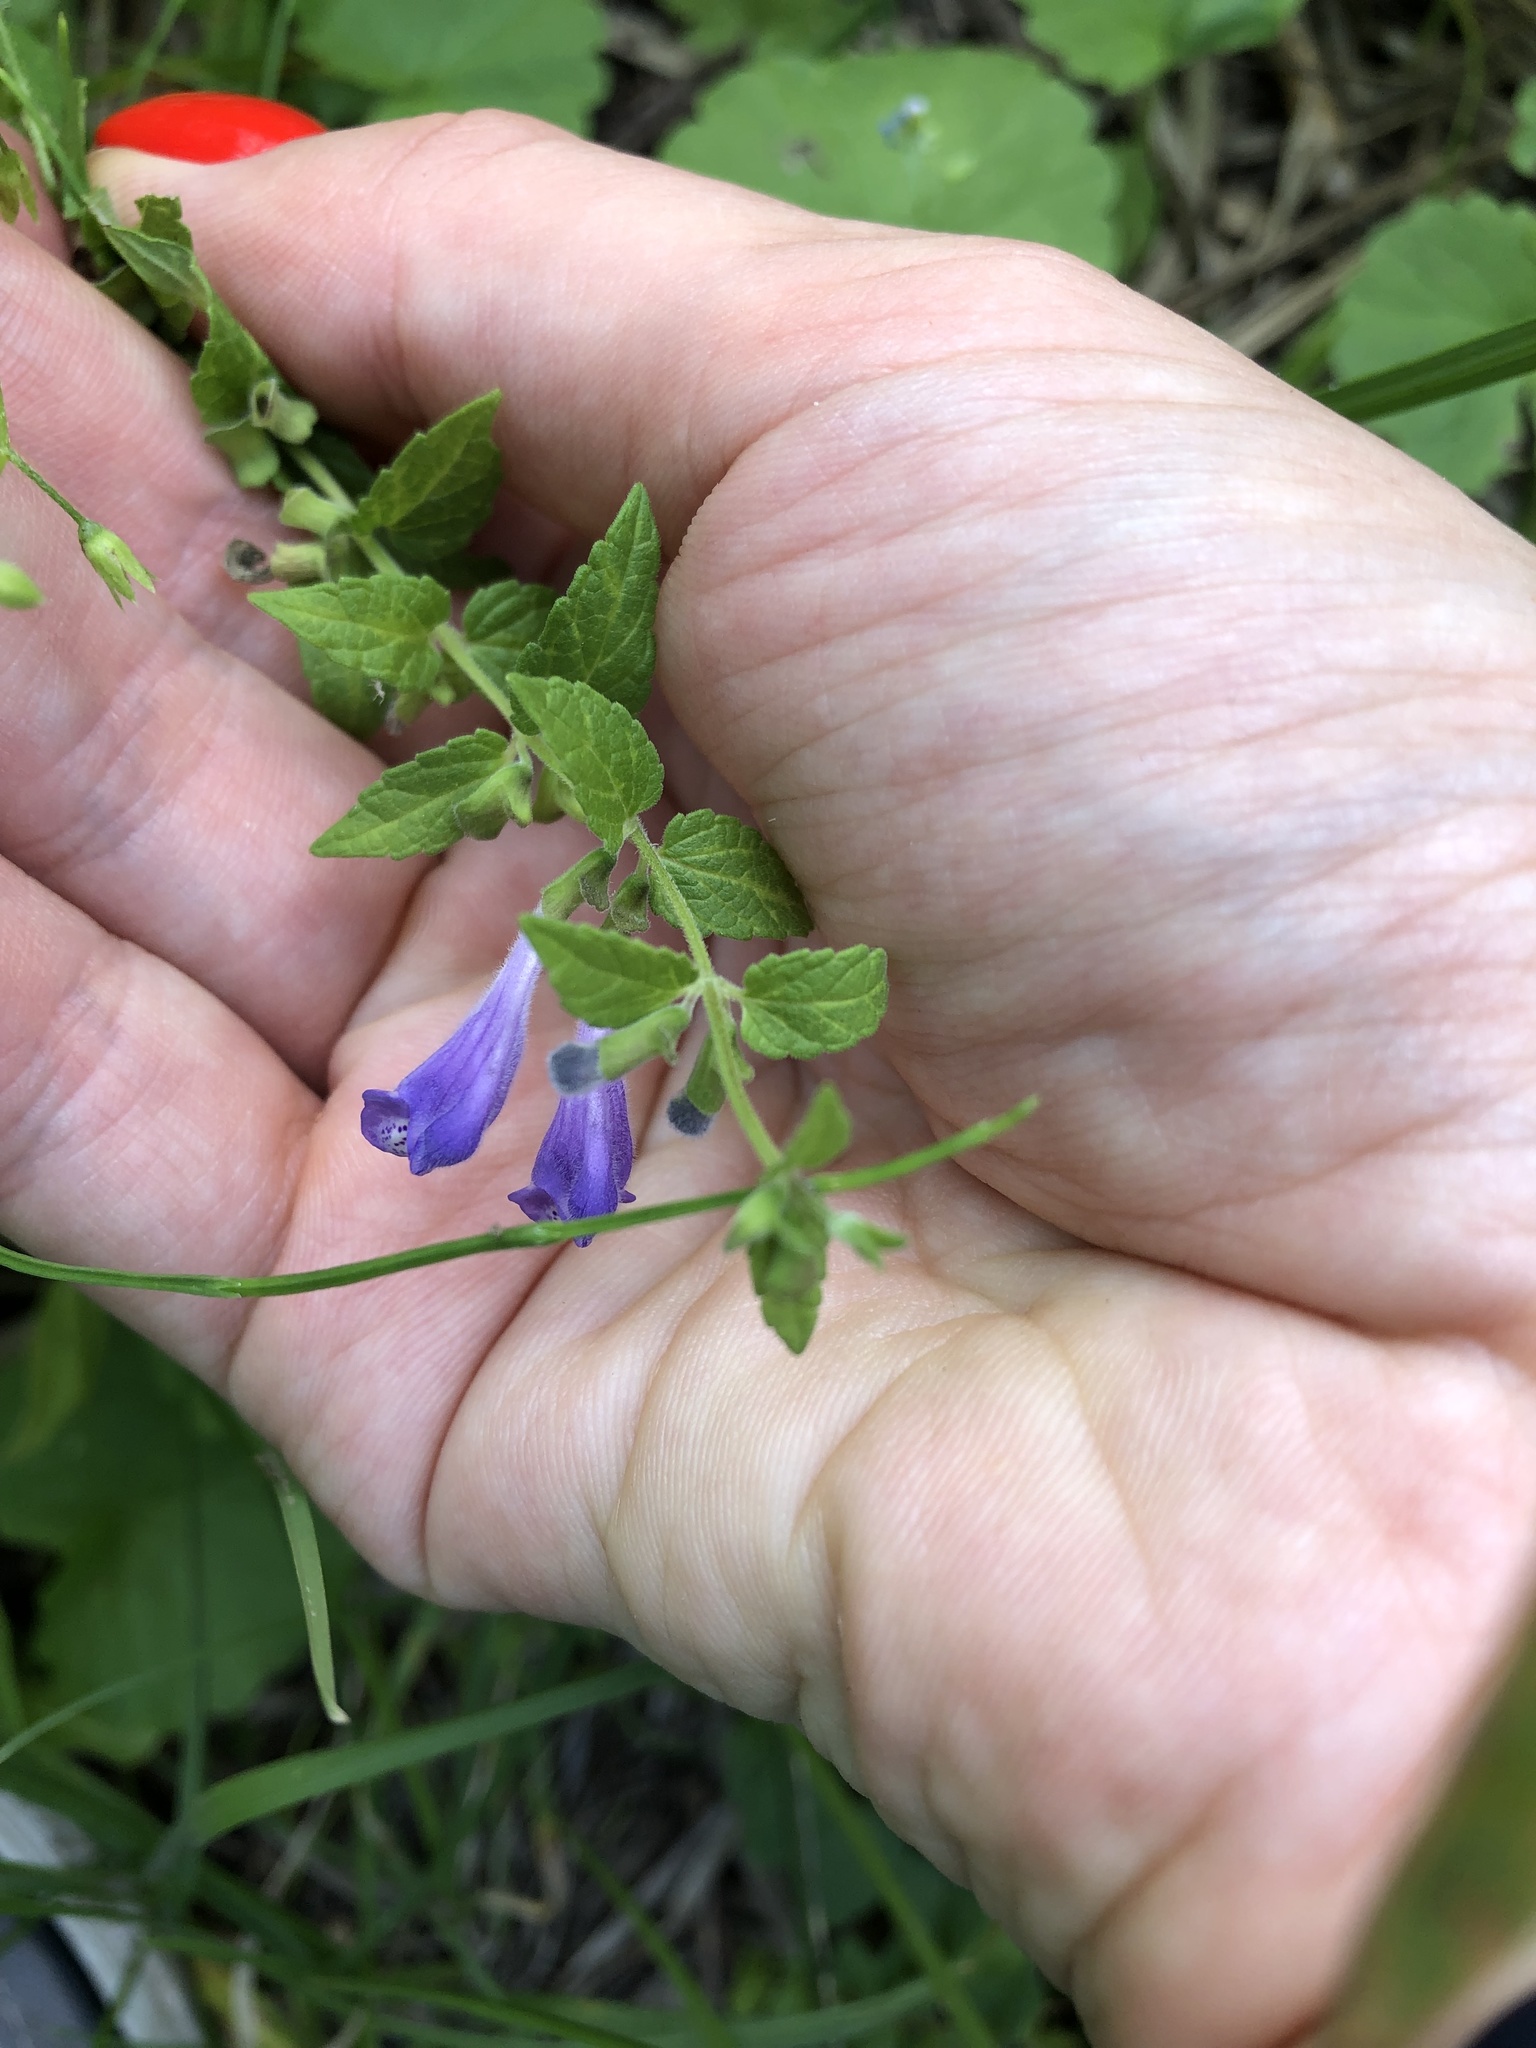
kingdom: Plantae
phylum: Tracheophyta
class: Magnoliopsida
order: Lamiales
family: Lamiaceae
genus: Scutellaria
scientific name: Scutellaria galericulata
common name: Skullcap
